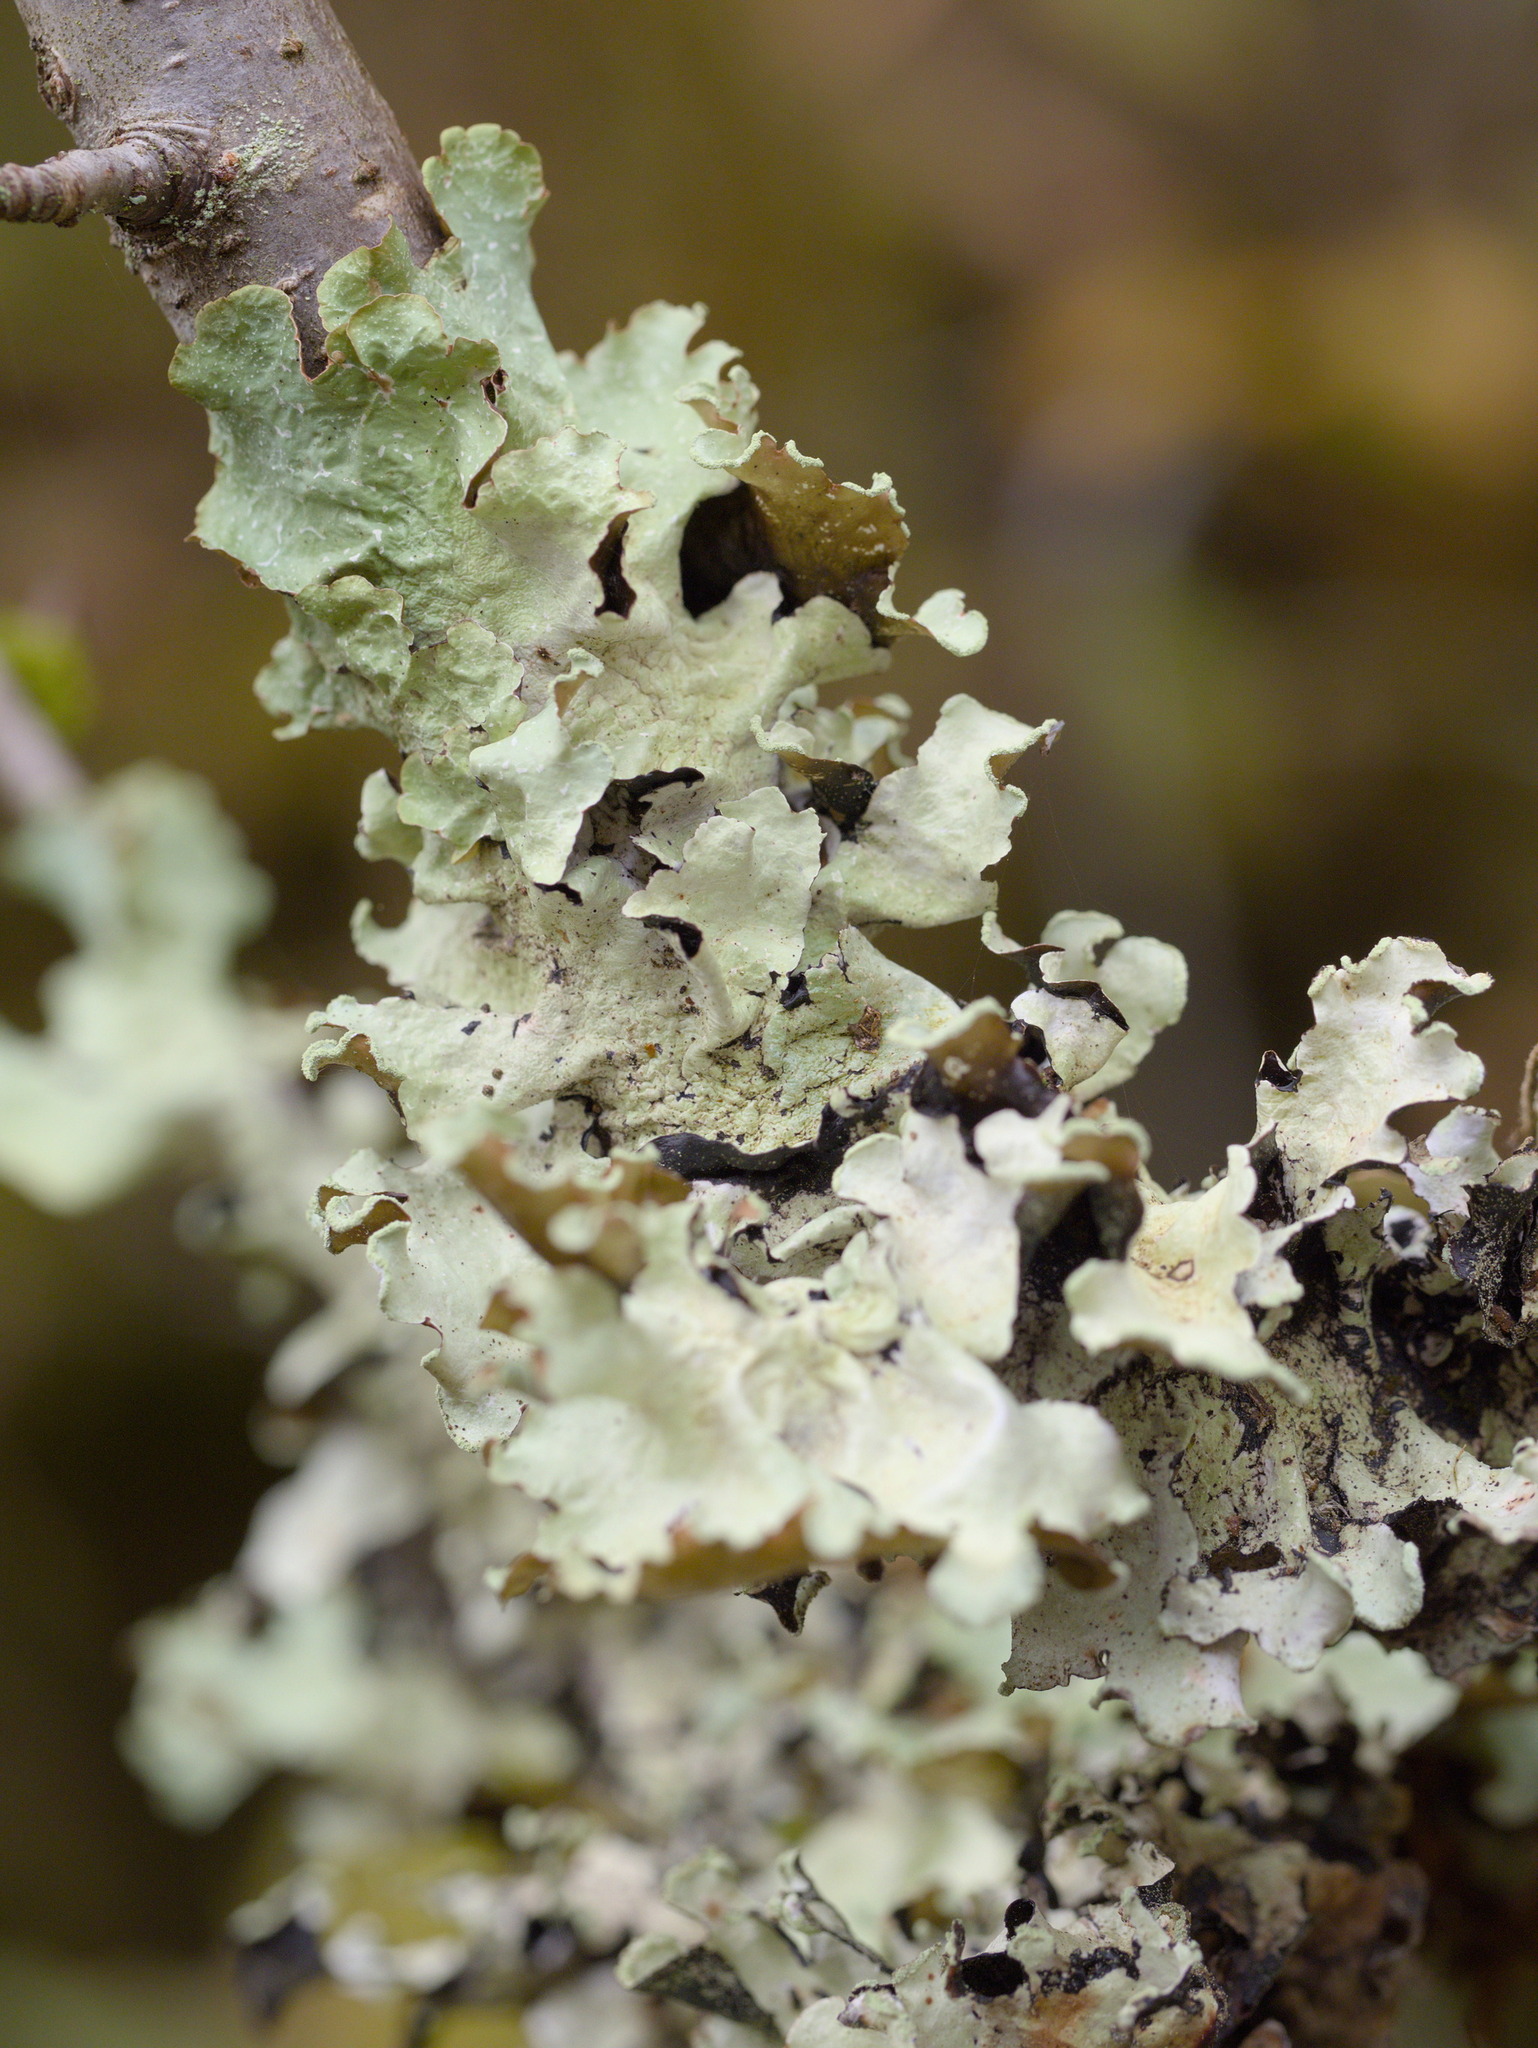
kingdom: Fungi
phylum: Ascomycota
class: Lecanoromycetes
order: Lecanorales
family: Parmeliaceae
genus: Cetrelia
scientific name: Cetrelia cetrarioides
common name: Speckled iceland lichen
